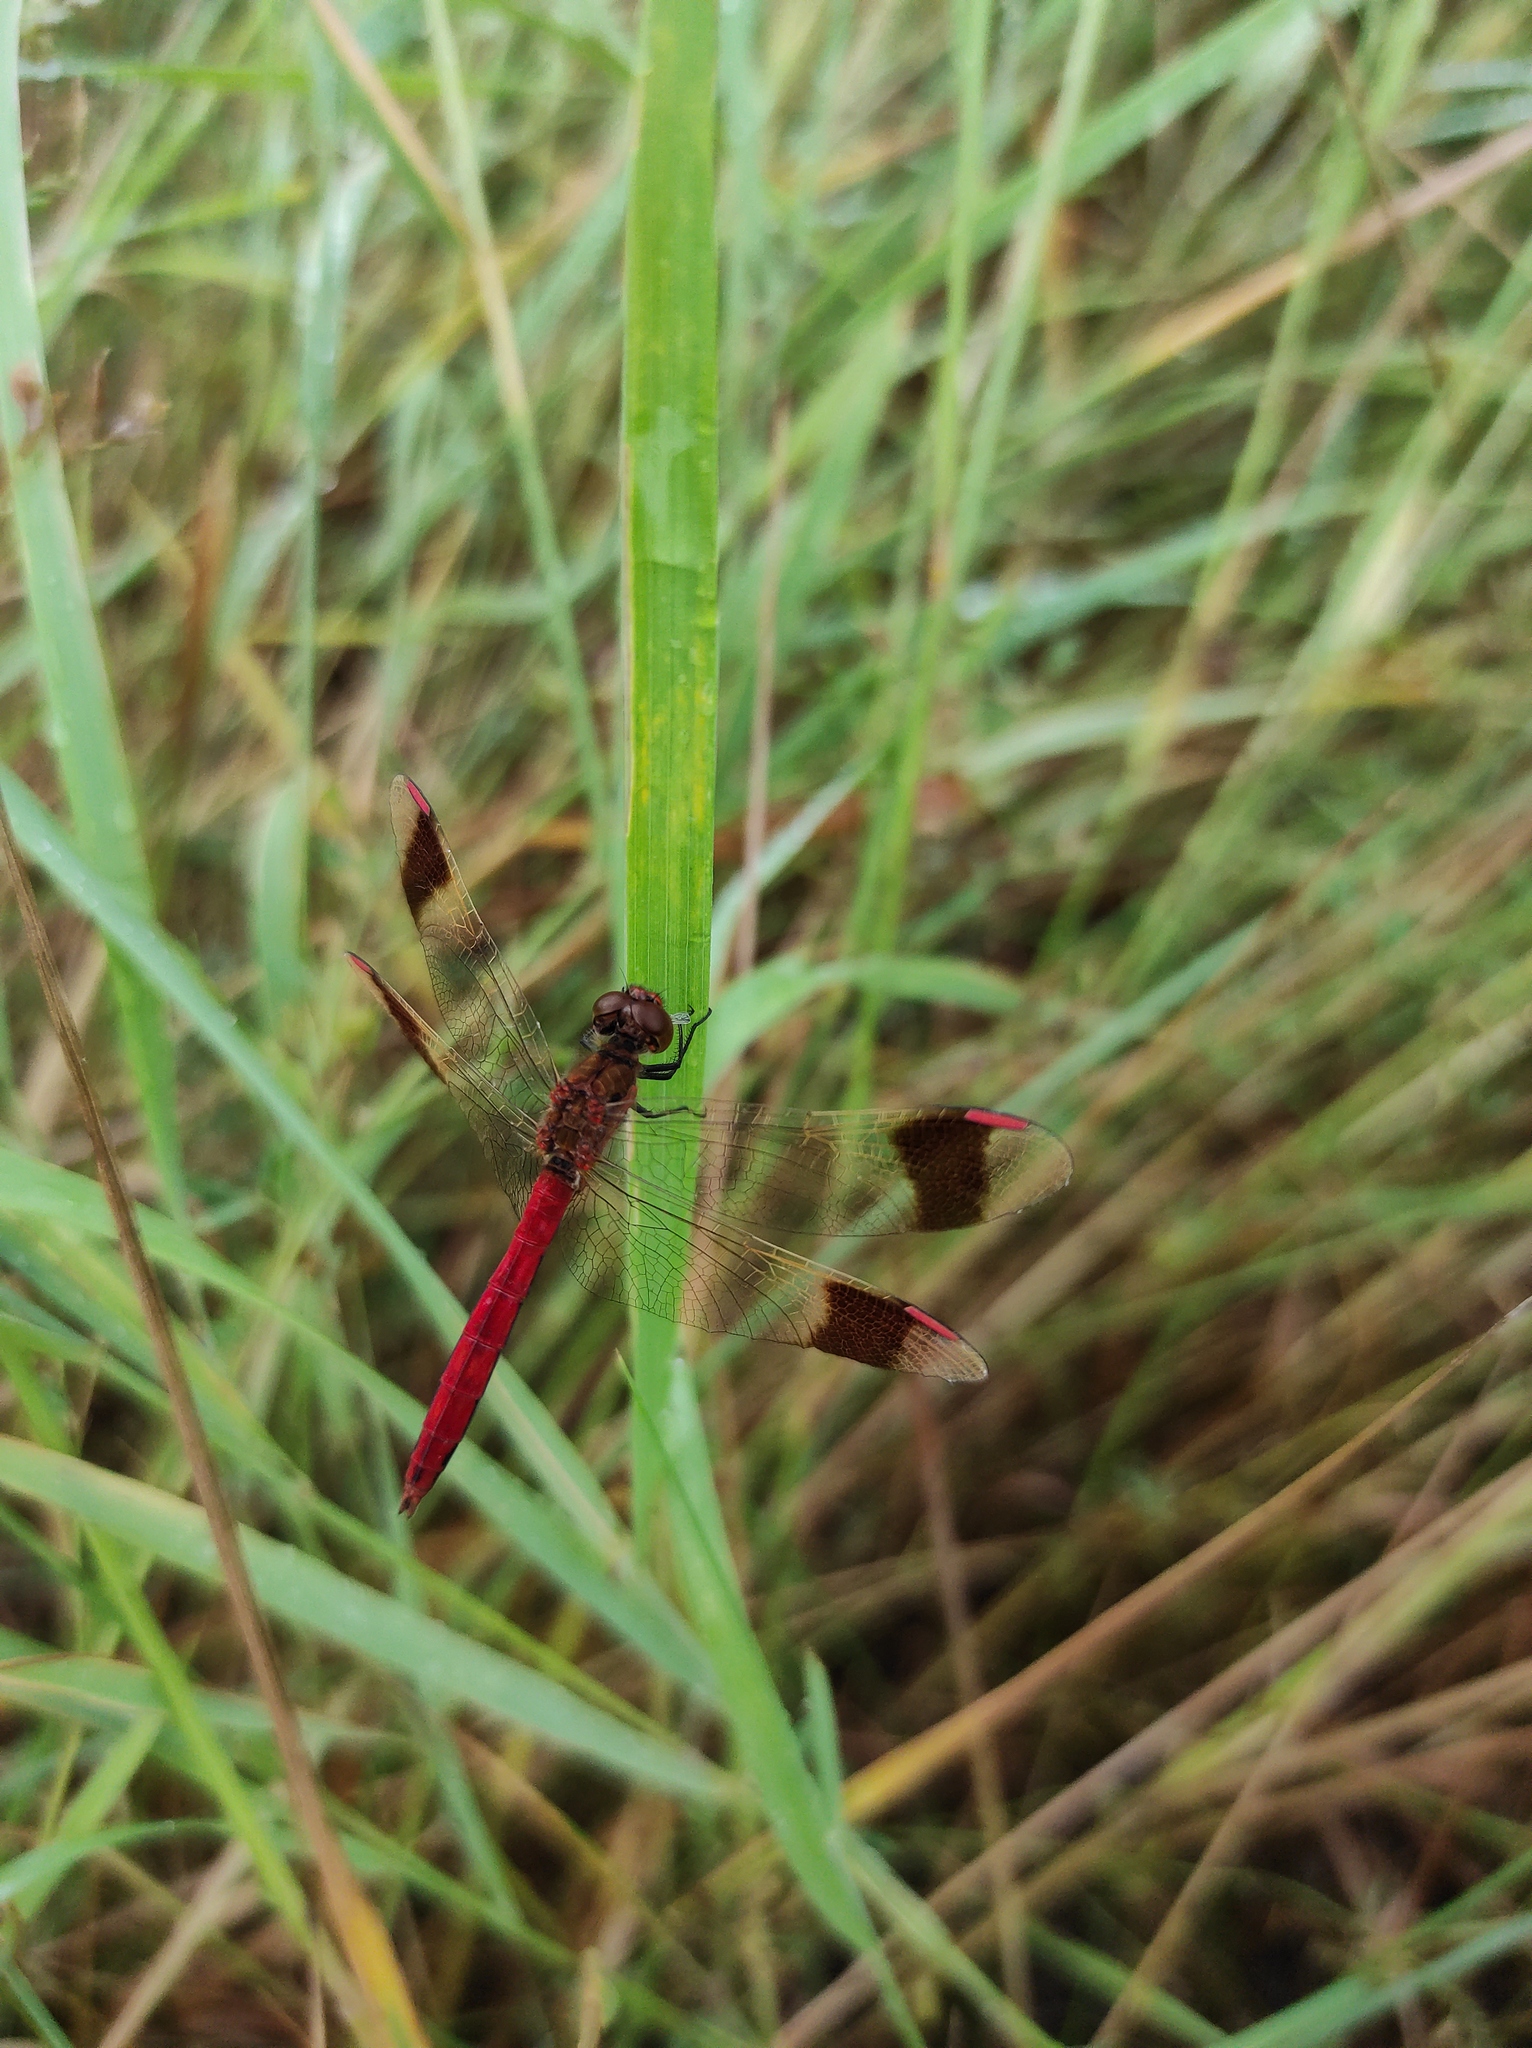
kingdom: Animalia
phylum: Arthropoda
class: Insecta
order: Odonata
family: Libellulidae
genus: Sympetrum
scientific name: Sympetrum pedemontanum
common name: Banded darter
